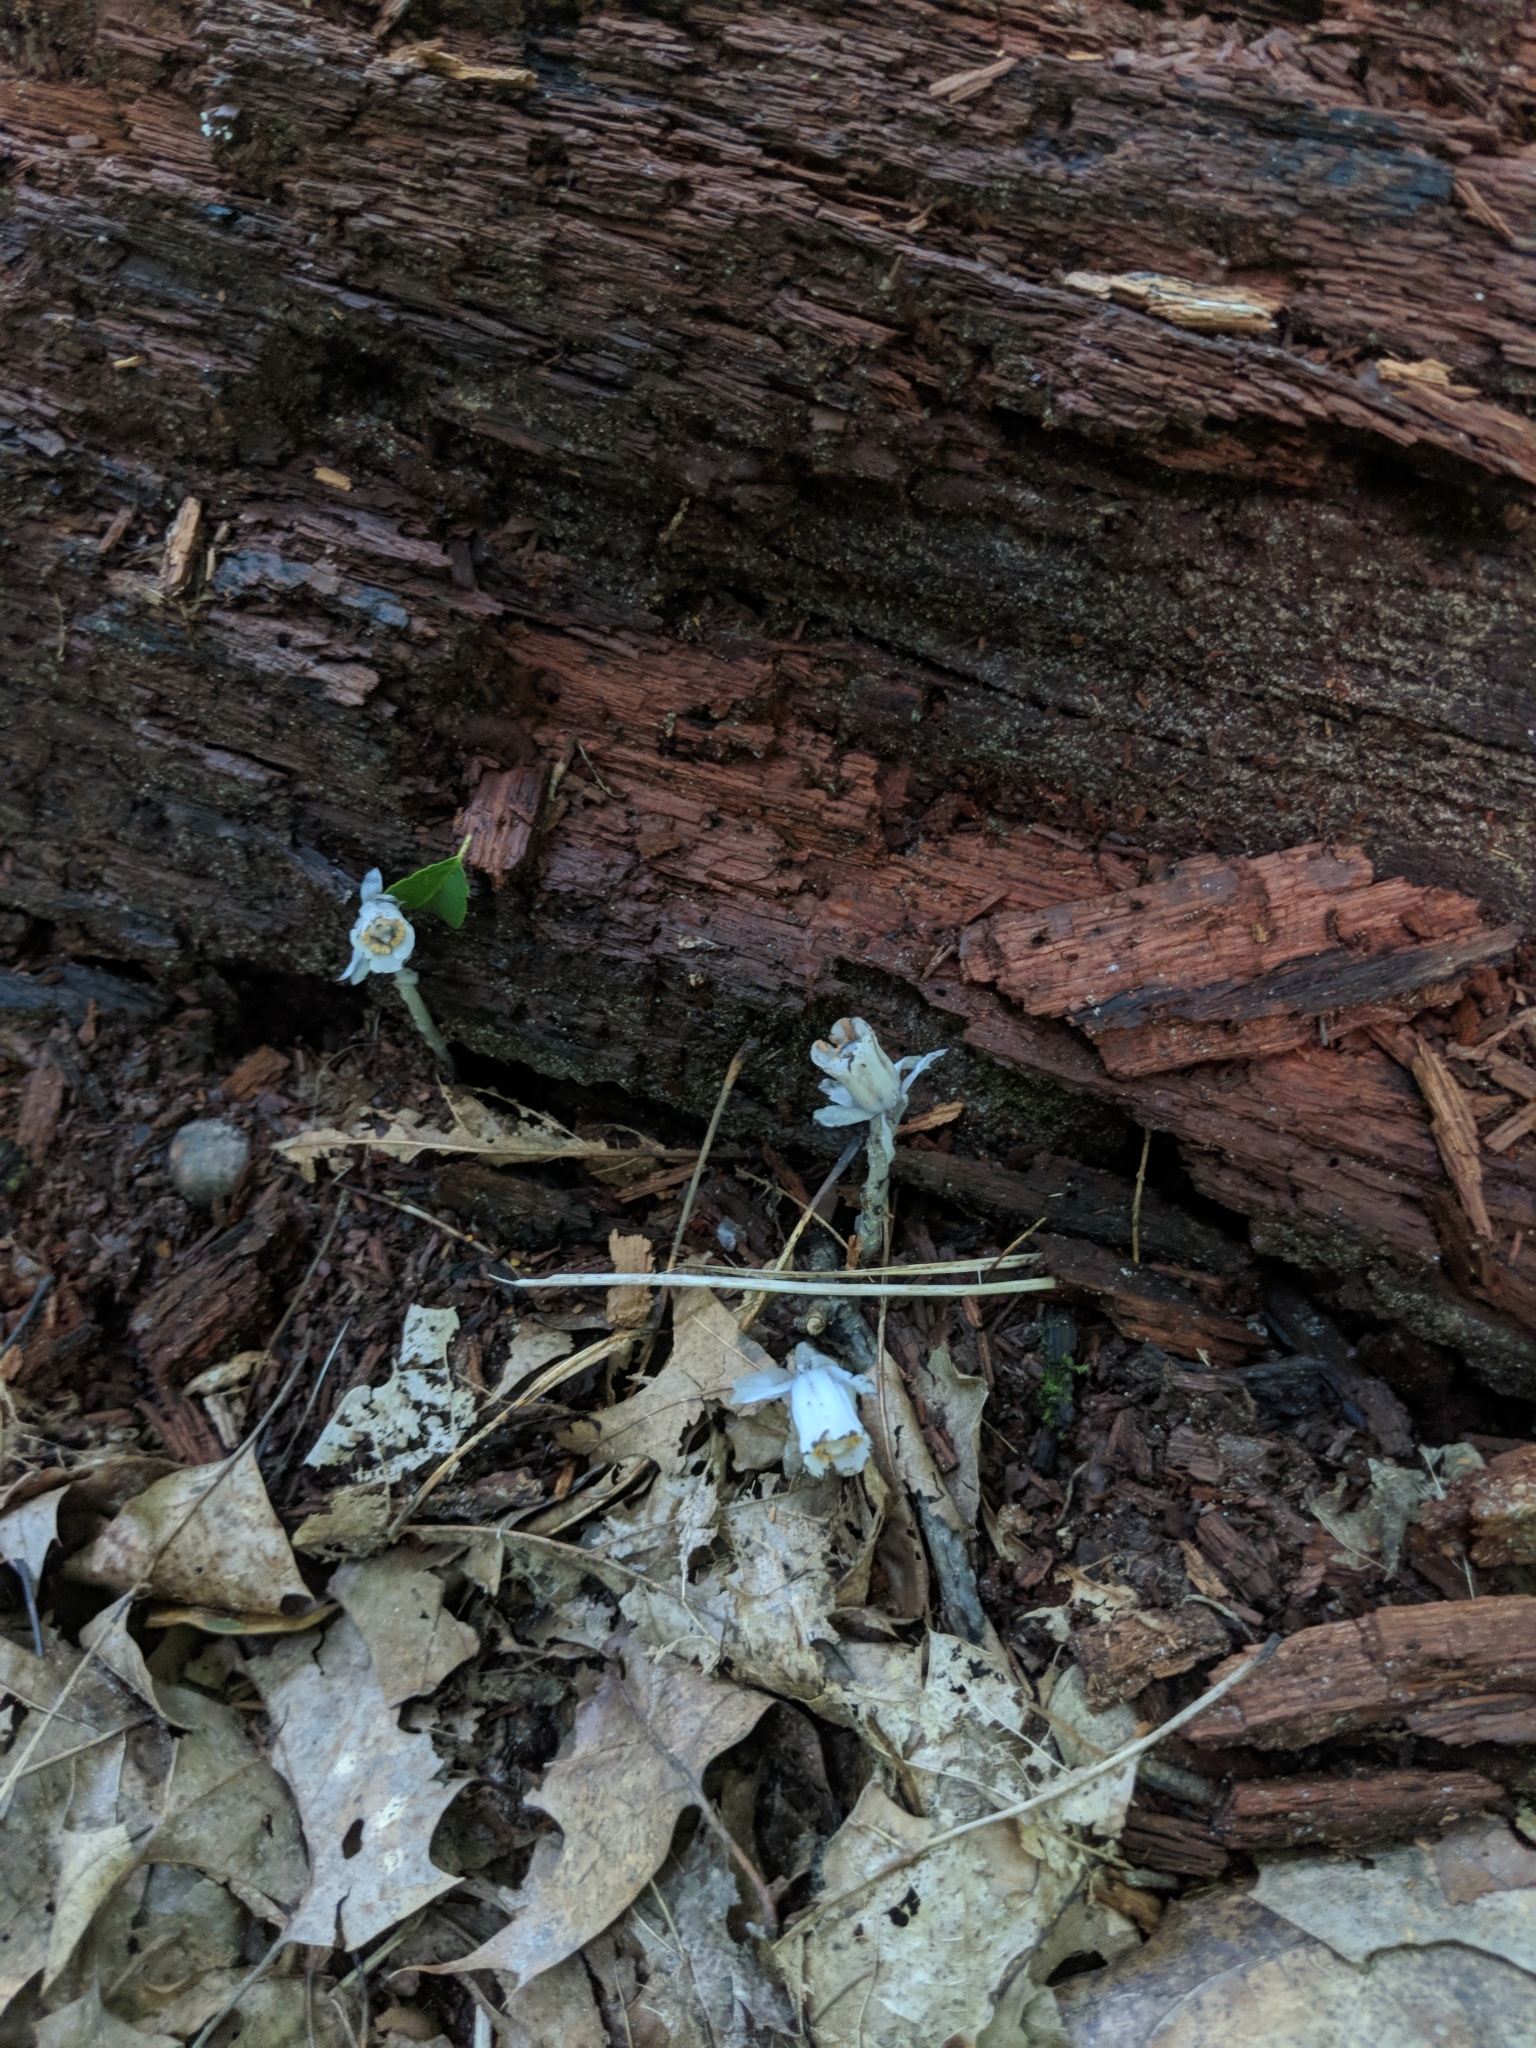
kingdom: Plantae
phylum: Tracheophyta
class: Magnoliopsida
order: Ericales
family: Ericaceae
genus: Monotropa
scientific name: Monotropa uniflora
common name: Convulsion root
